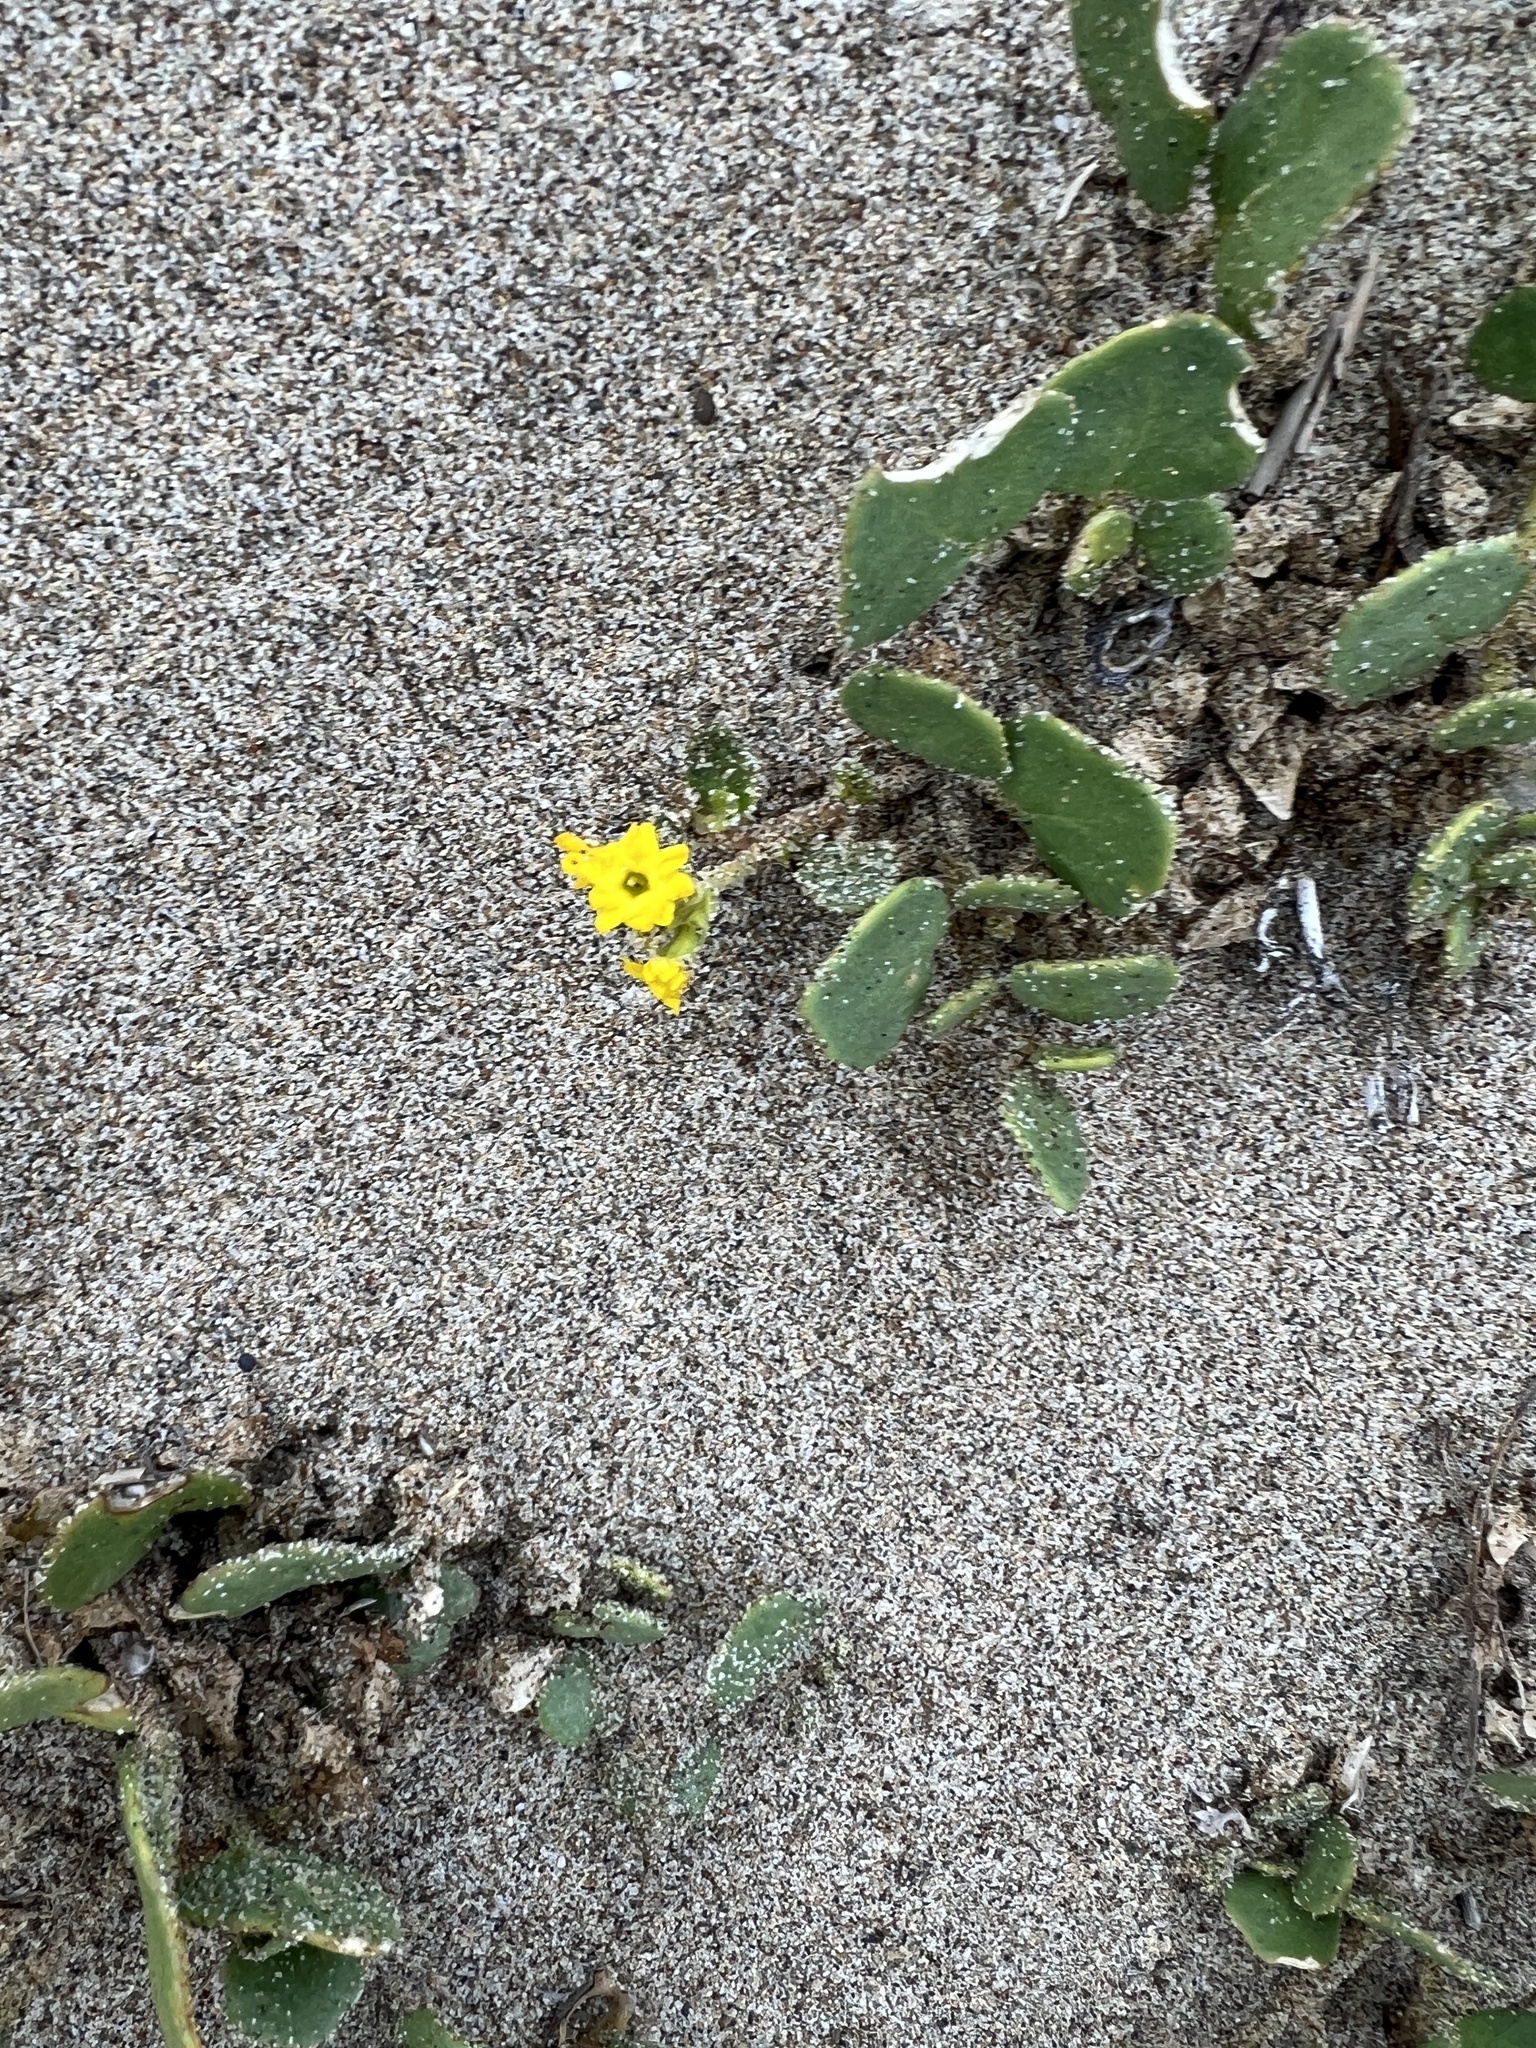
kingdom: Plantae
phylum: Tracheophyta
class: Magnoliopsida
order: Caryophyllales
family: Nyctaginaceae
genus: Abronia
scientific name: Abronia latifolia
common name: Yellow sand-verbena
